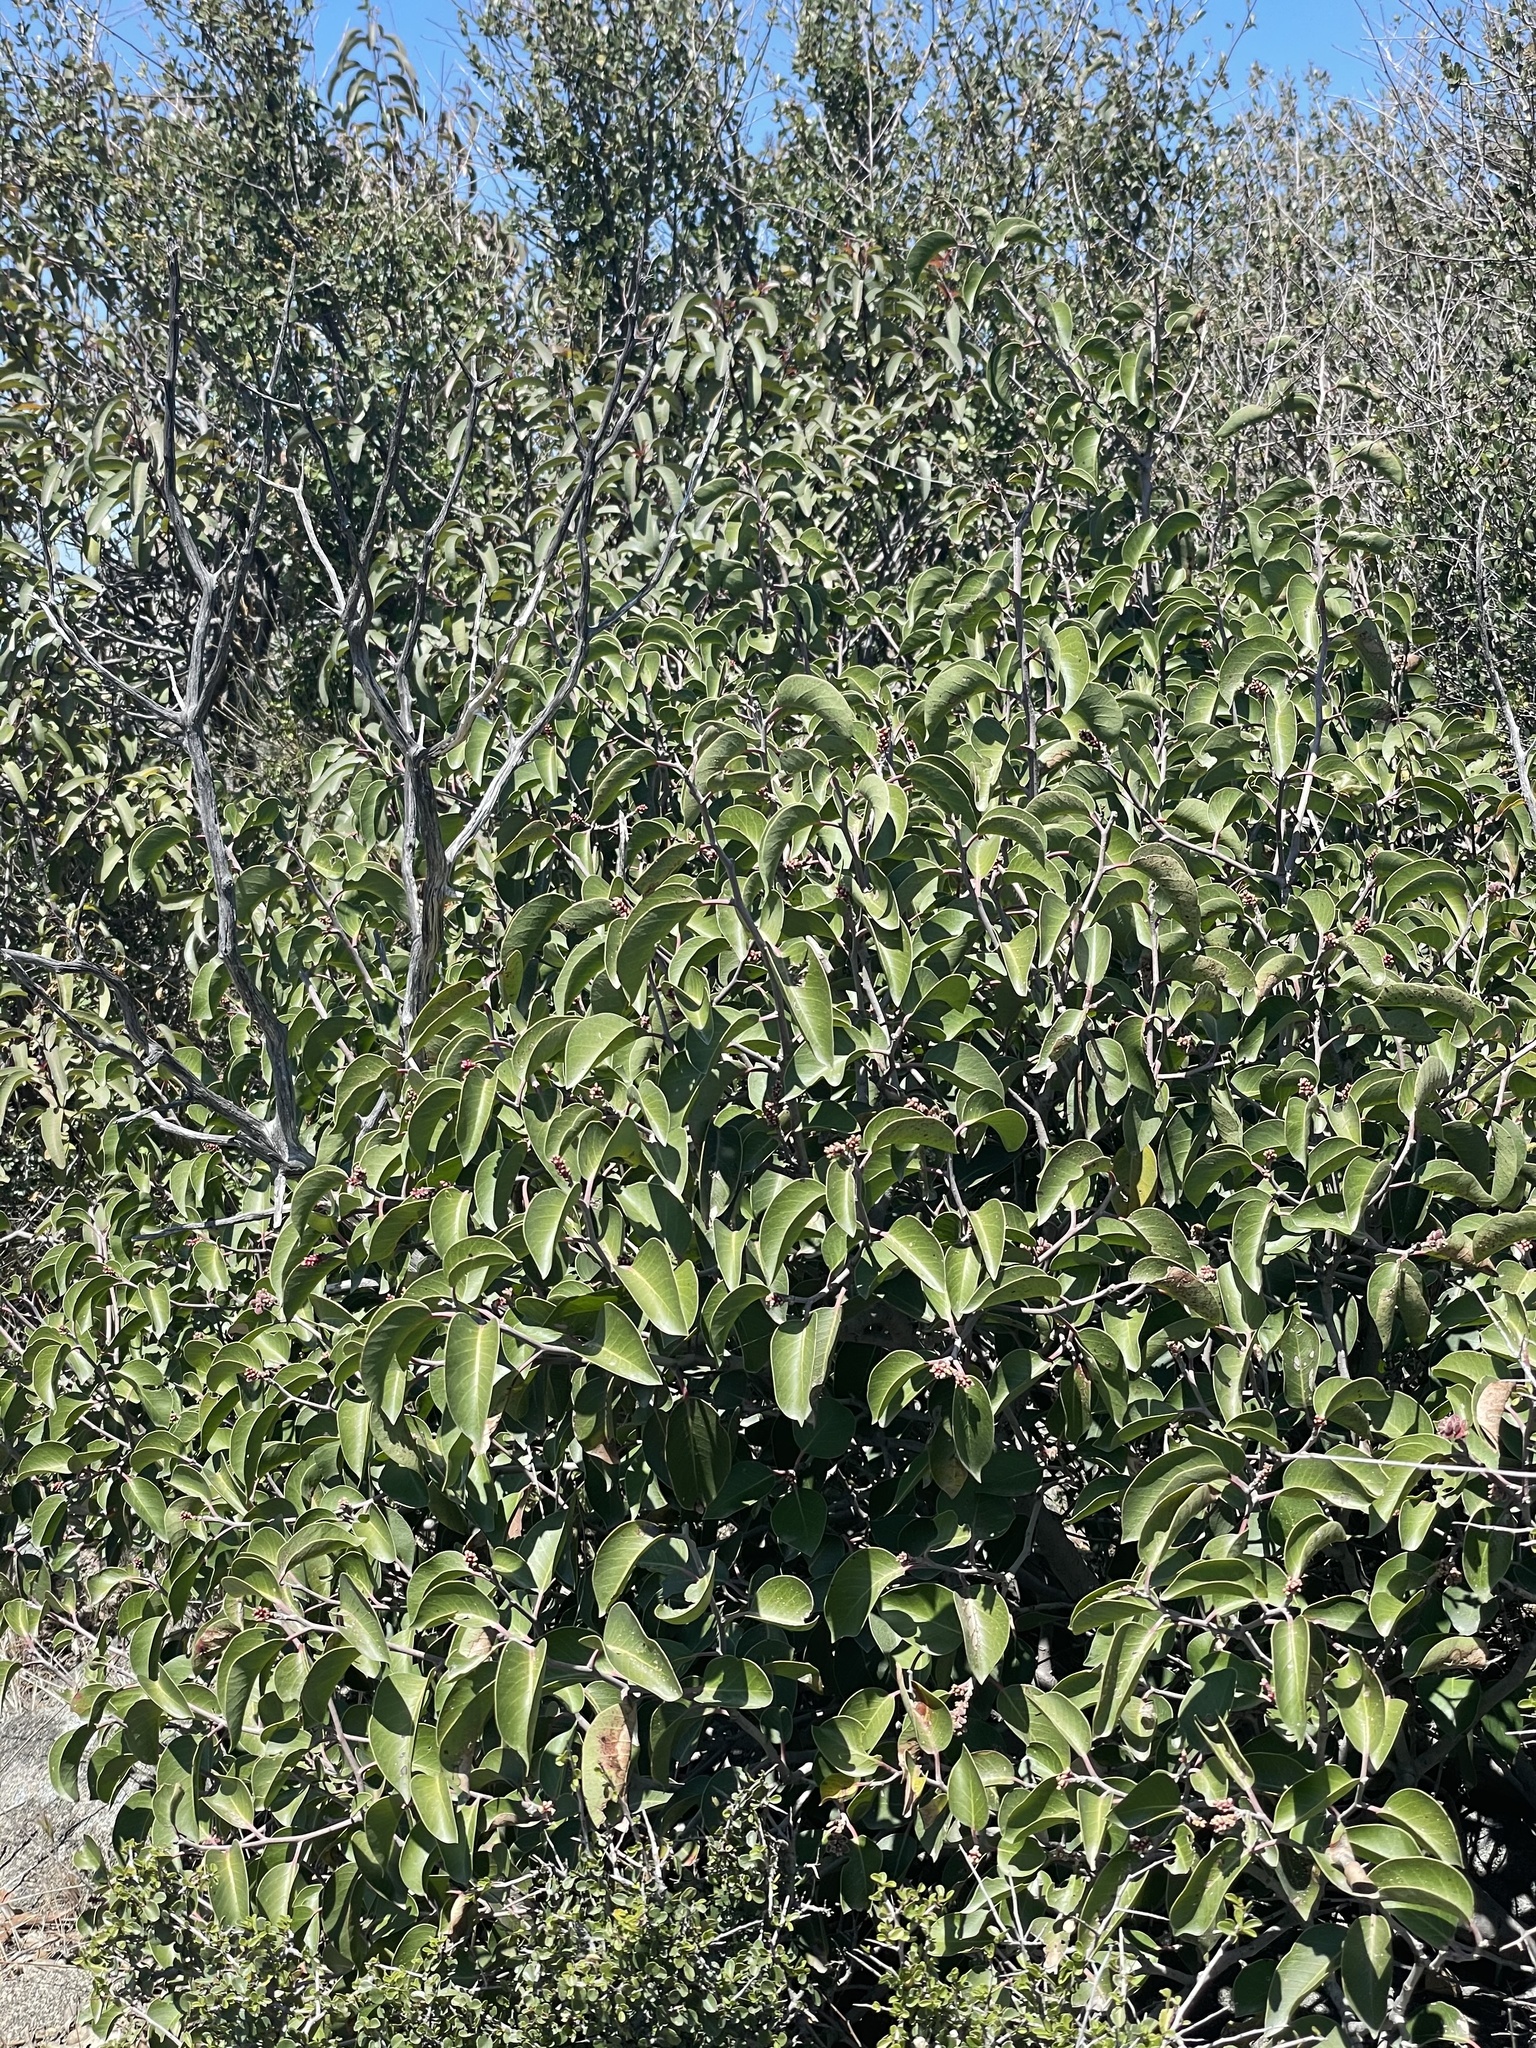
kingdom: Plantae
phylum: Tracheophyta
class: Magnoliopsida
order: Sapindales
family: Anacardiaceae
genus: Rhus
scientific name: Rhus ovata
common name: Sugar sumac
